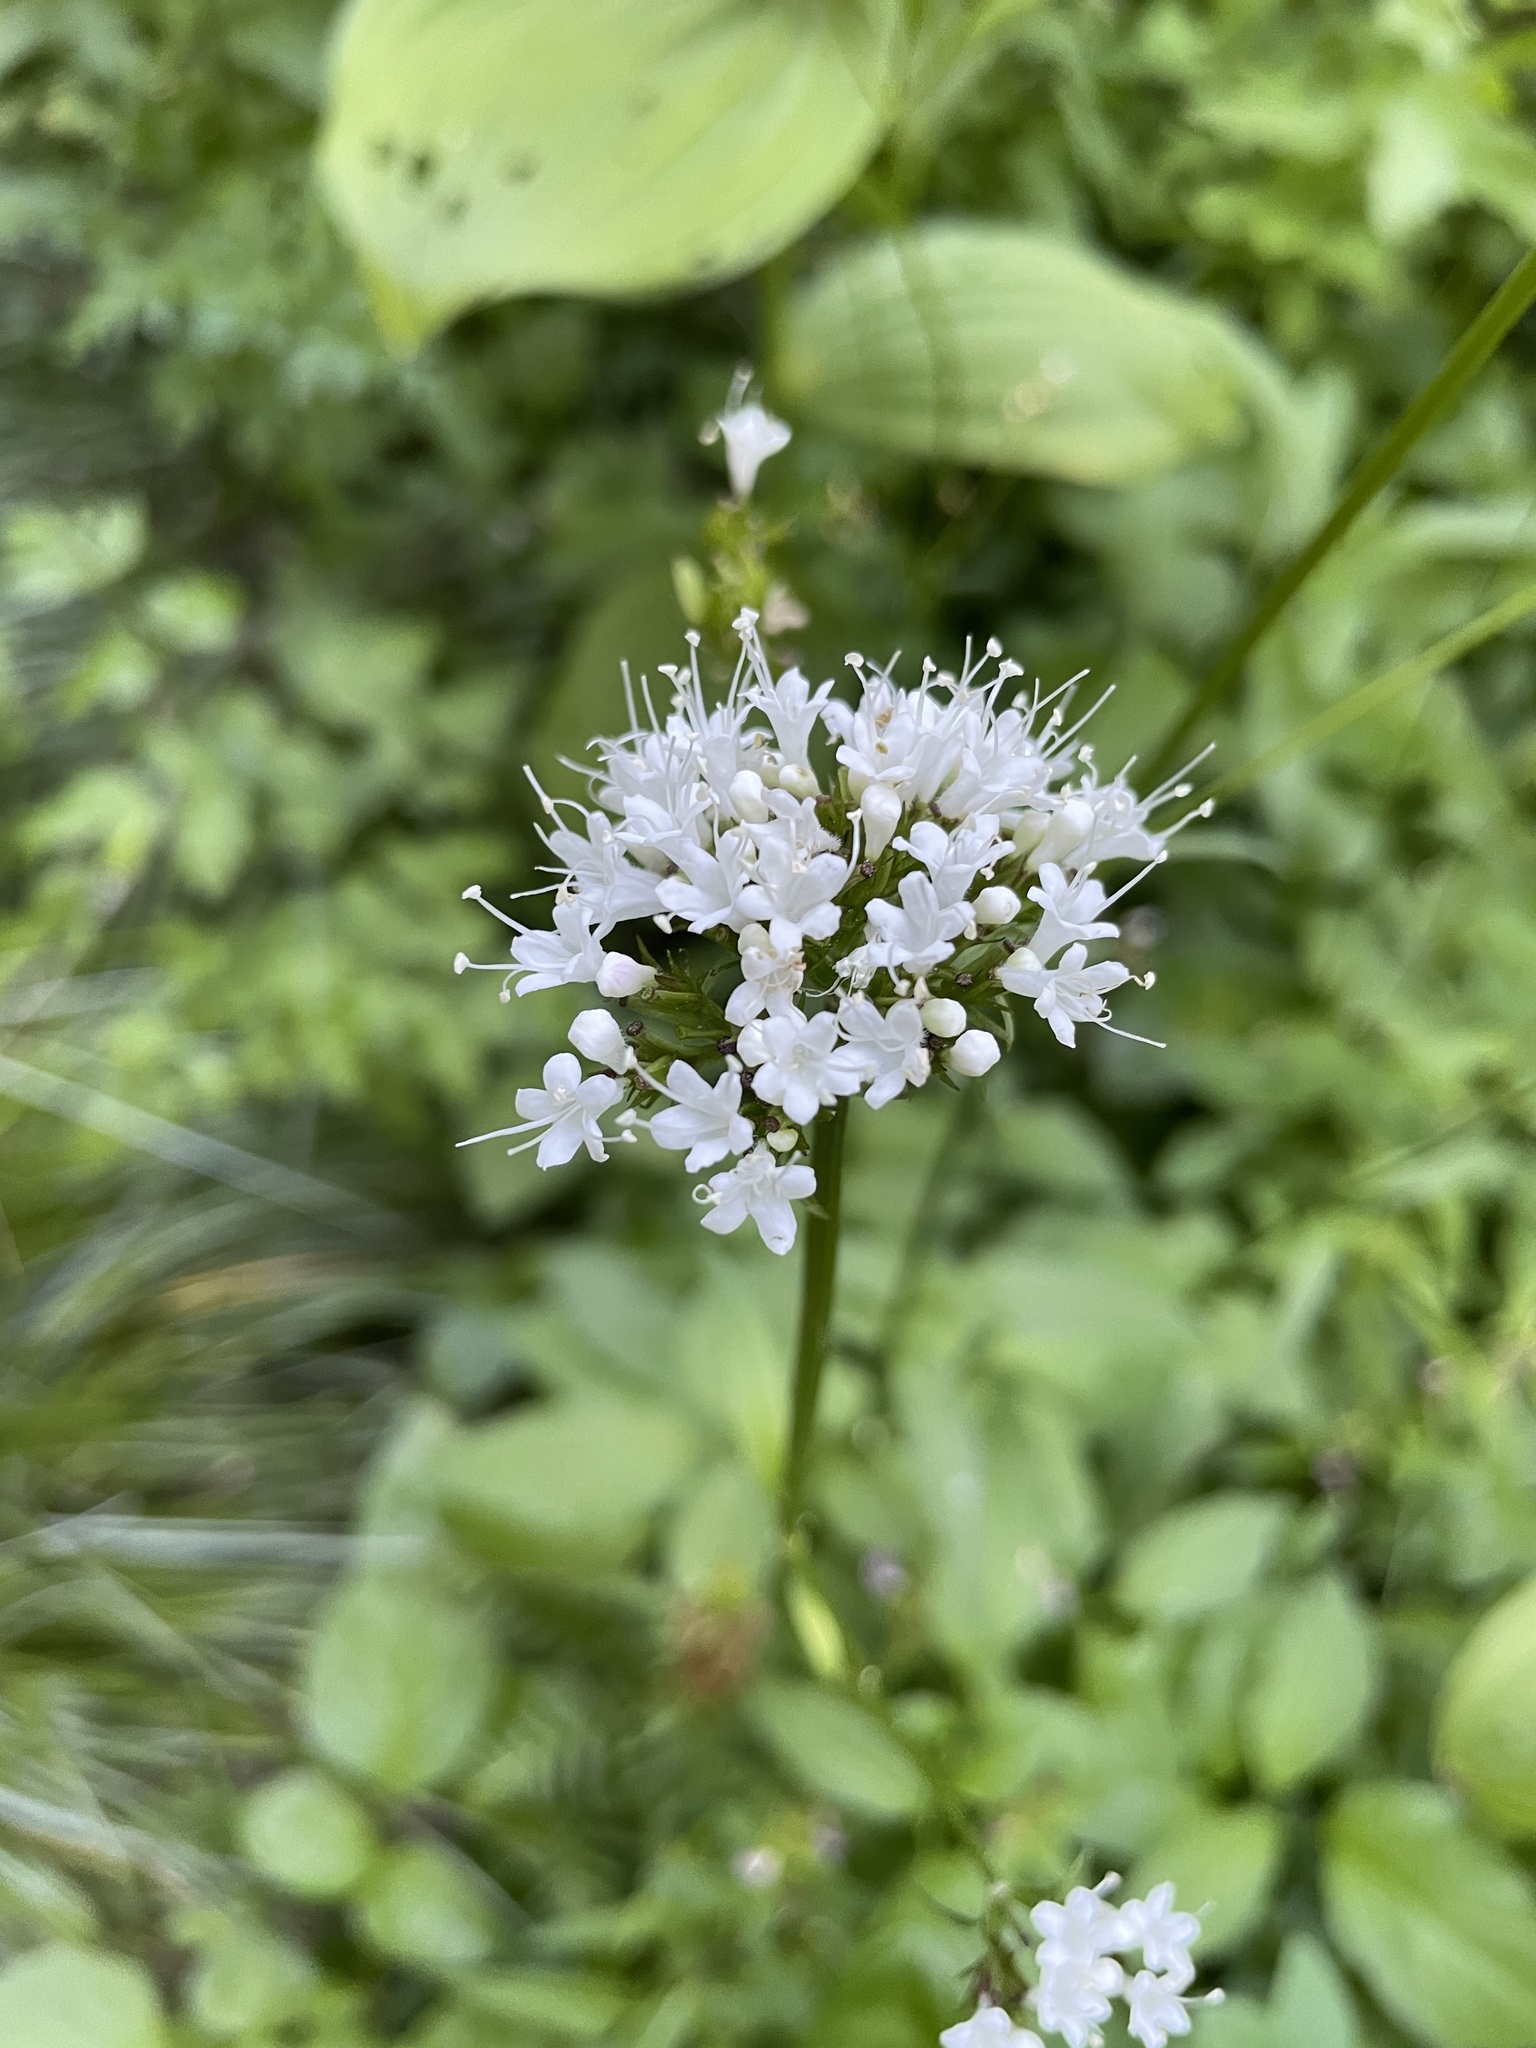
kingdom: Plantae
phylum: Tracheophyta
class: Magnoliopsida
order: Dipsacales
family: Caprifoliaceae
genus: Valeriana
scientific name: Valeriana sitchensis
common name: Pacific valerian
